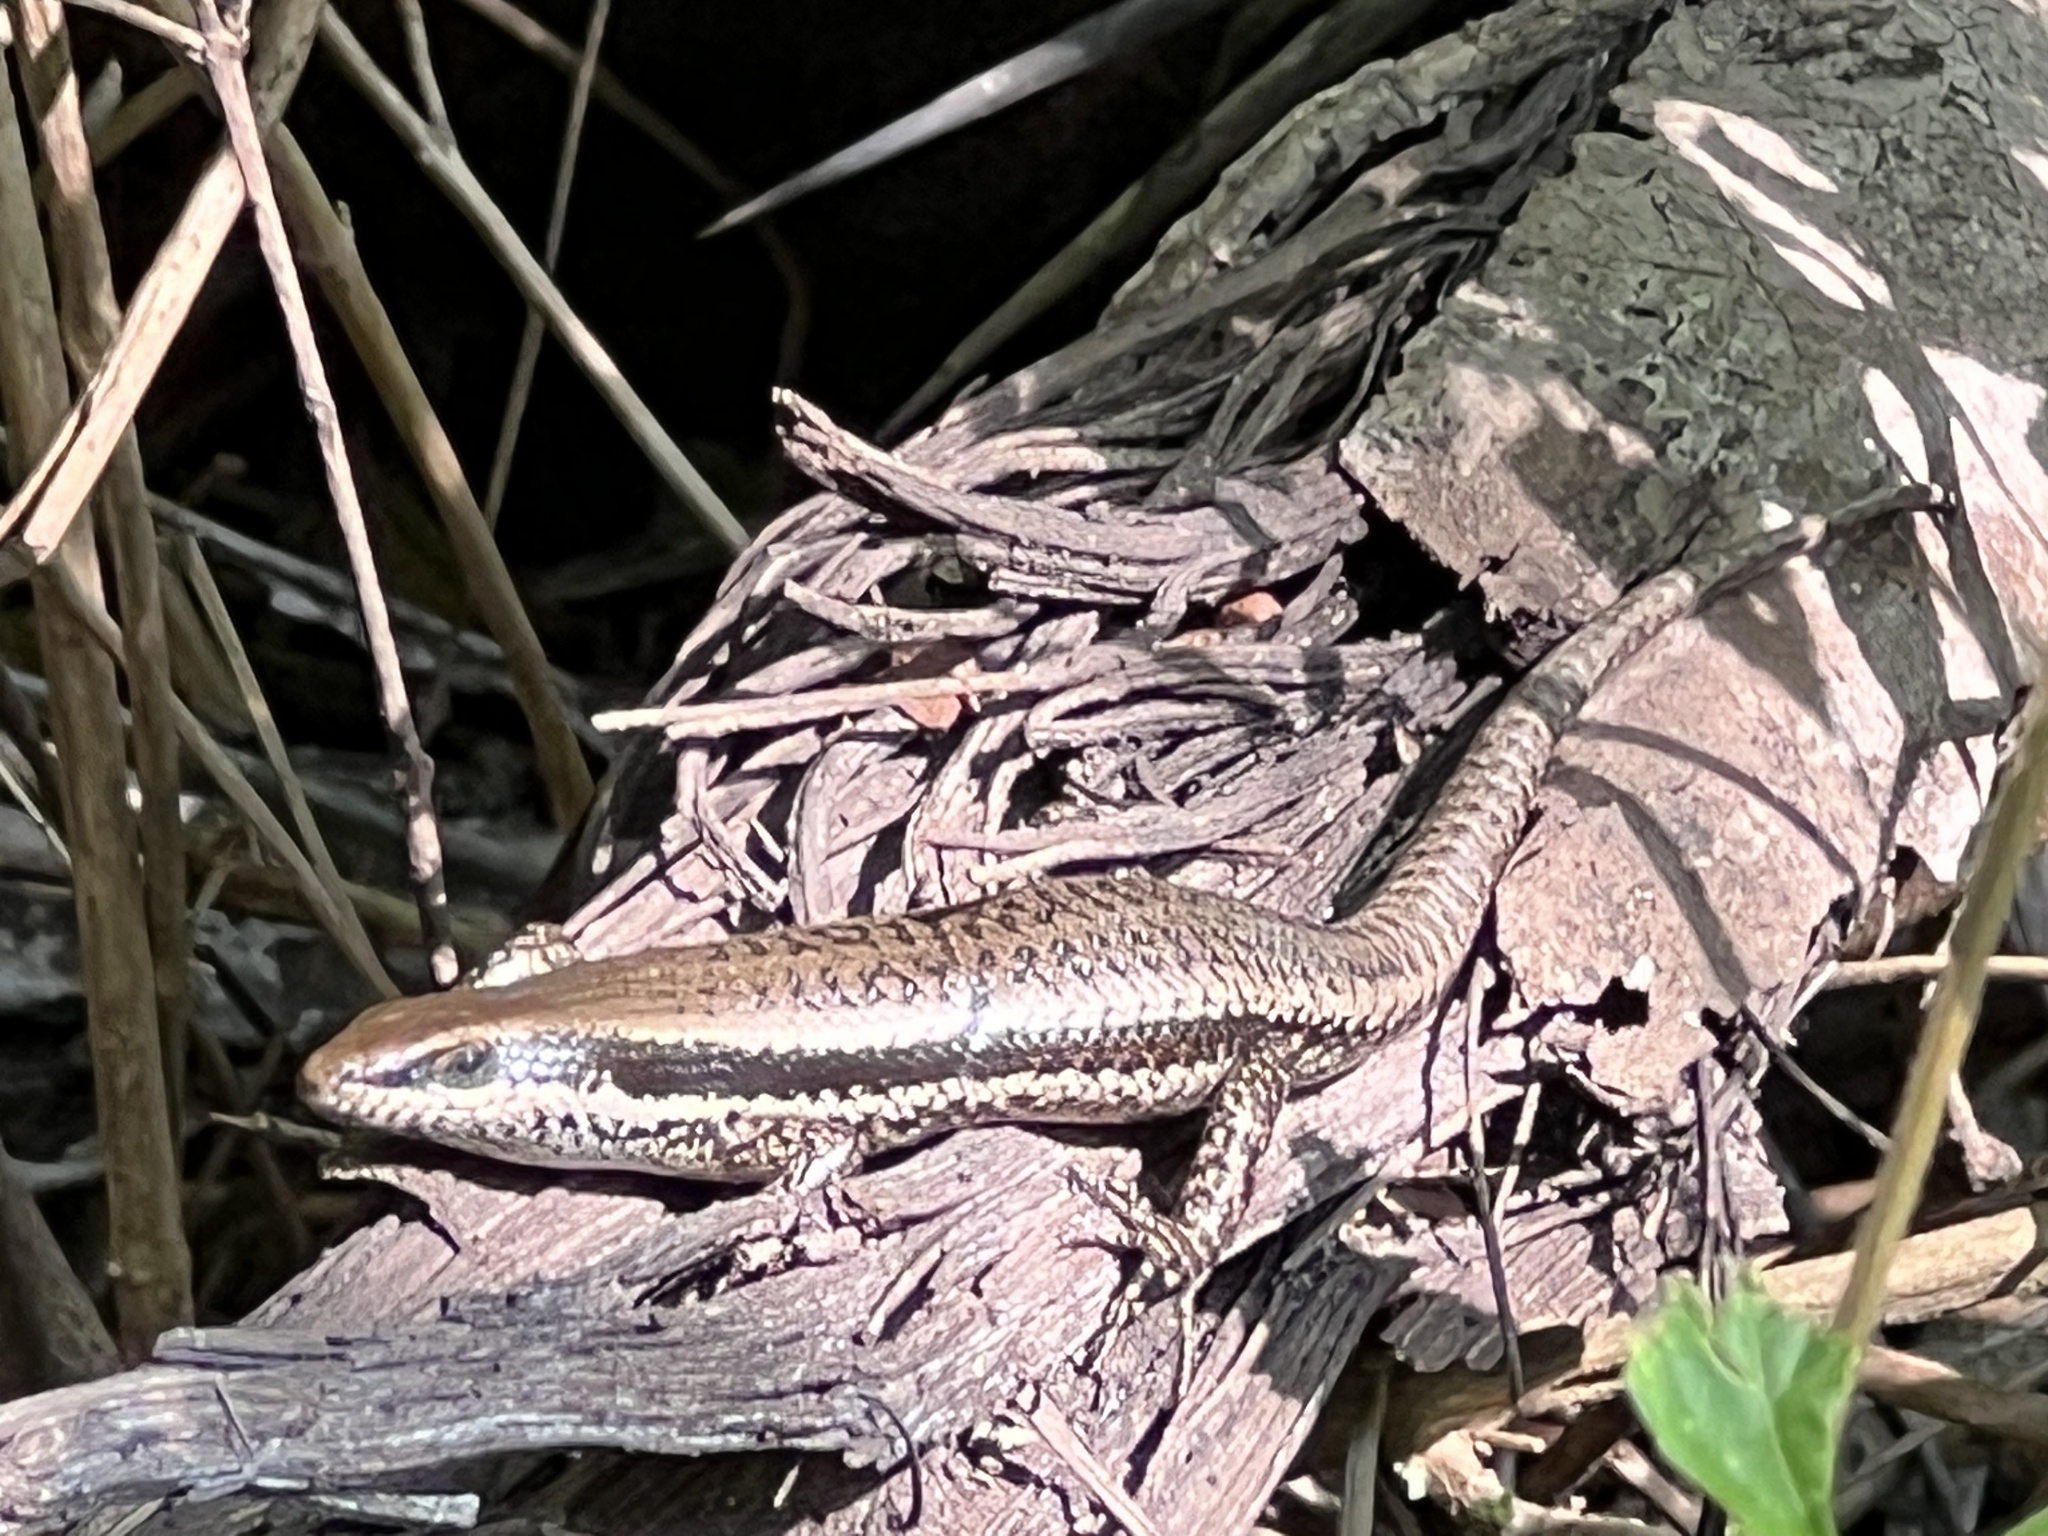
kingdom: Animalia
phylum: Chordata
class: Squamata
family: Scincidae
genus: Notomabuya
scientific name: Notomabuya frenata
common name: Cope's mabuya
